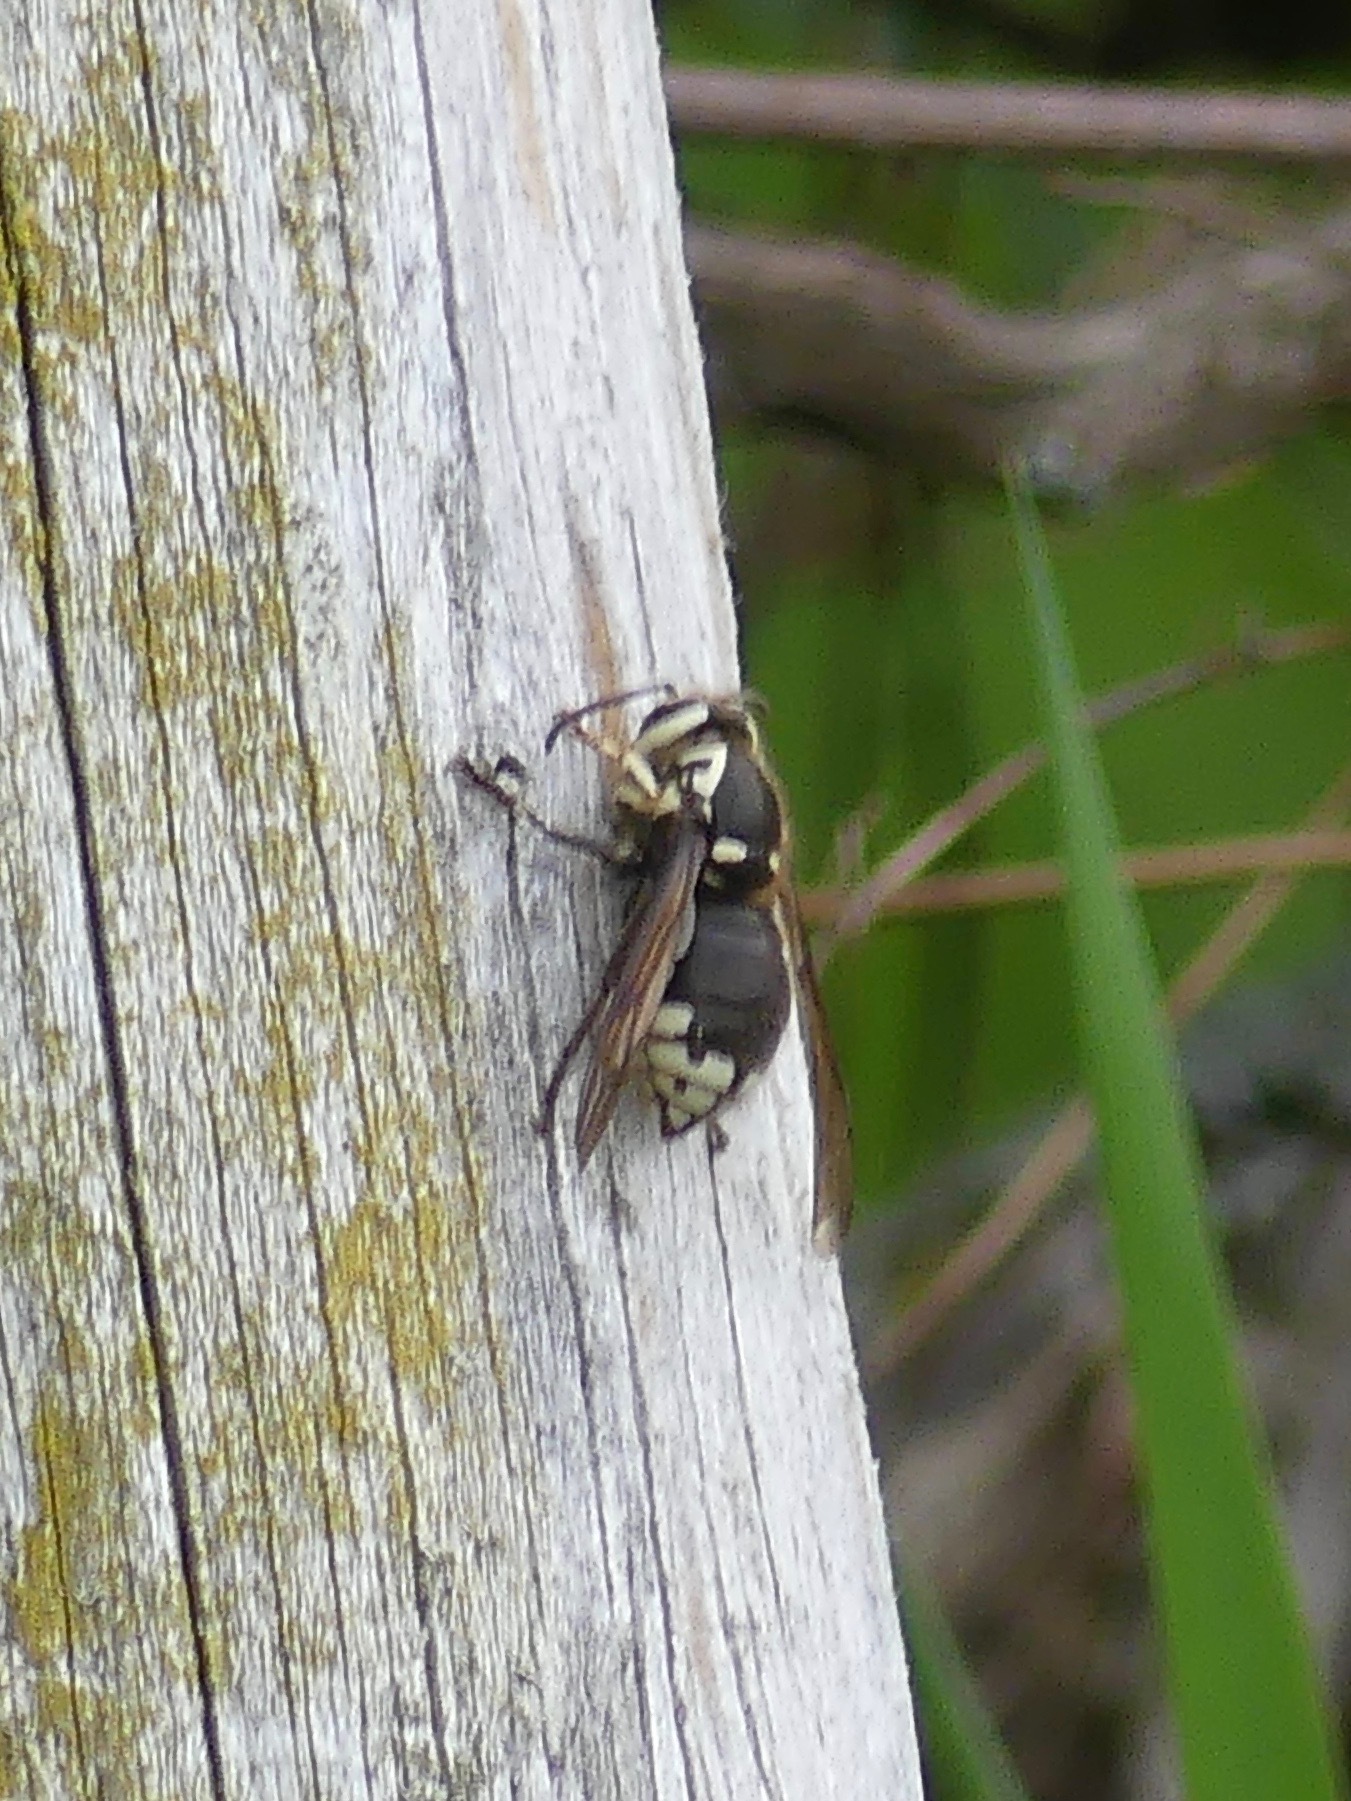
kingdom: Animalia
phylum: Arthropoda
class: Insecta
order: Hymenoptera
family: Vespidae
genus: Dolichovespula
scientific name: Dolichovespula maculata
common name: Bald-faced hornet
